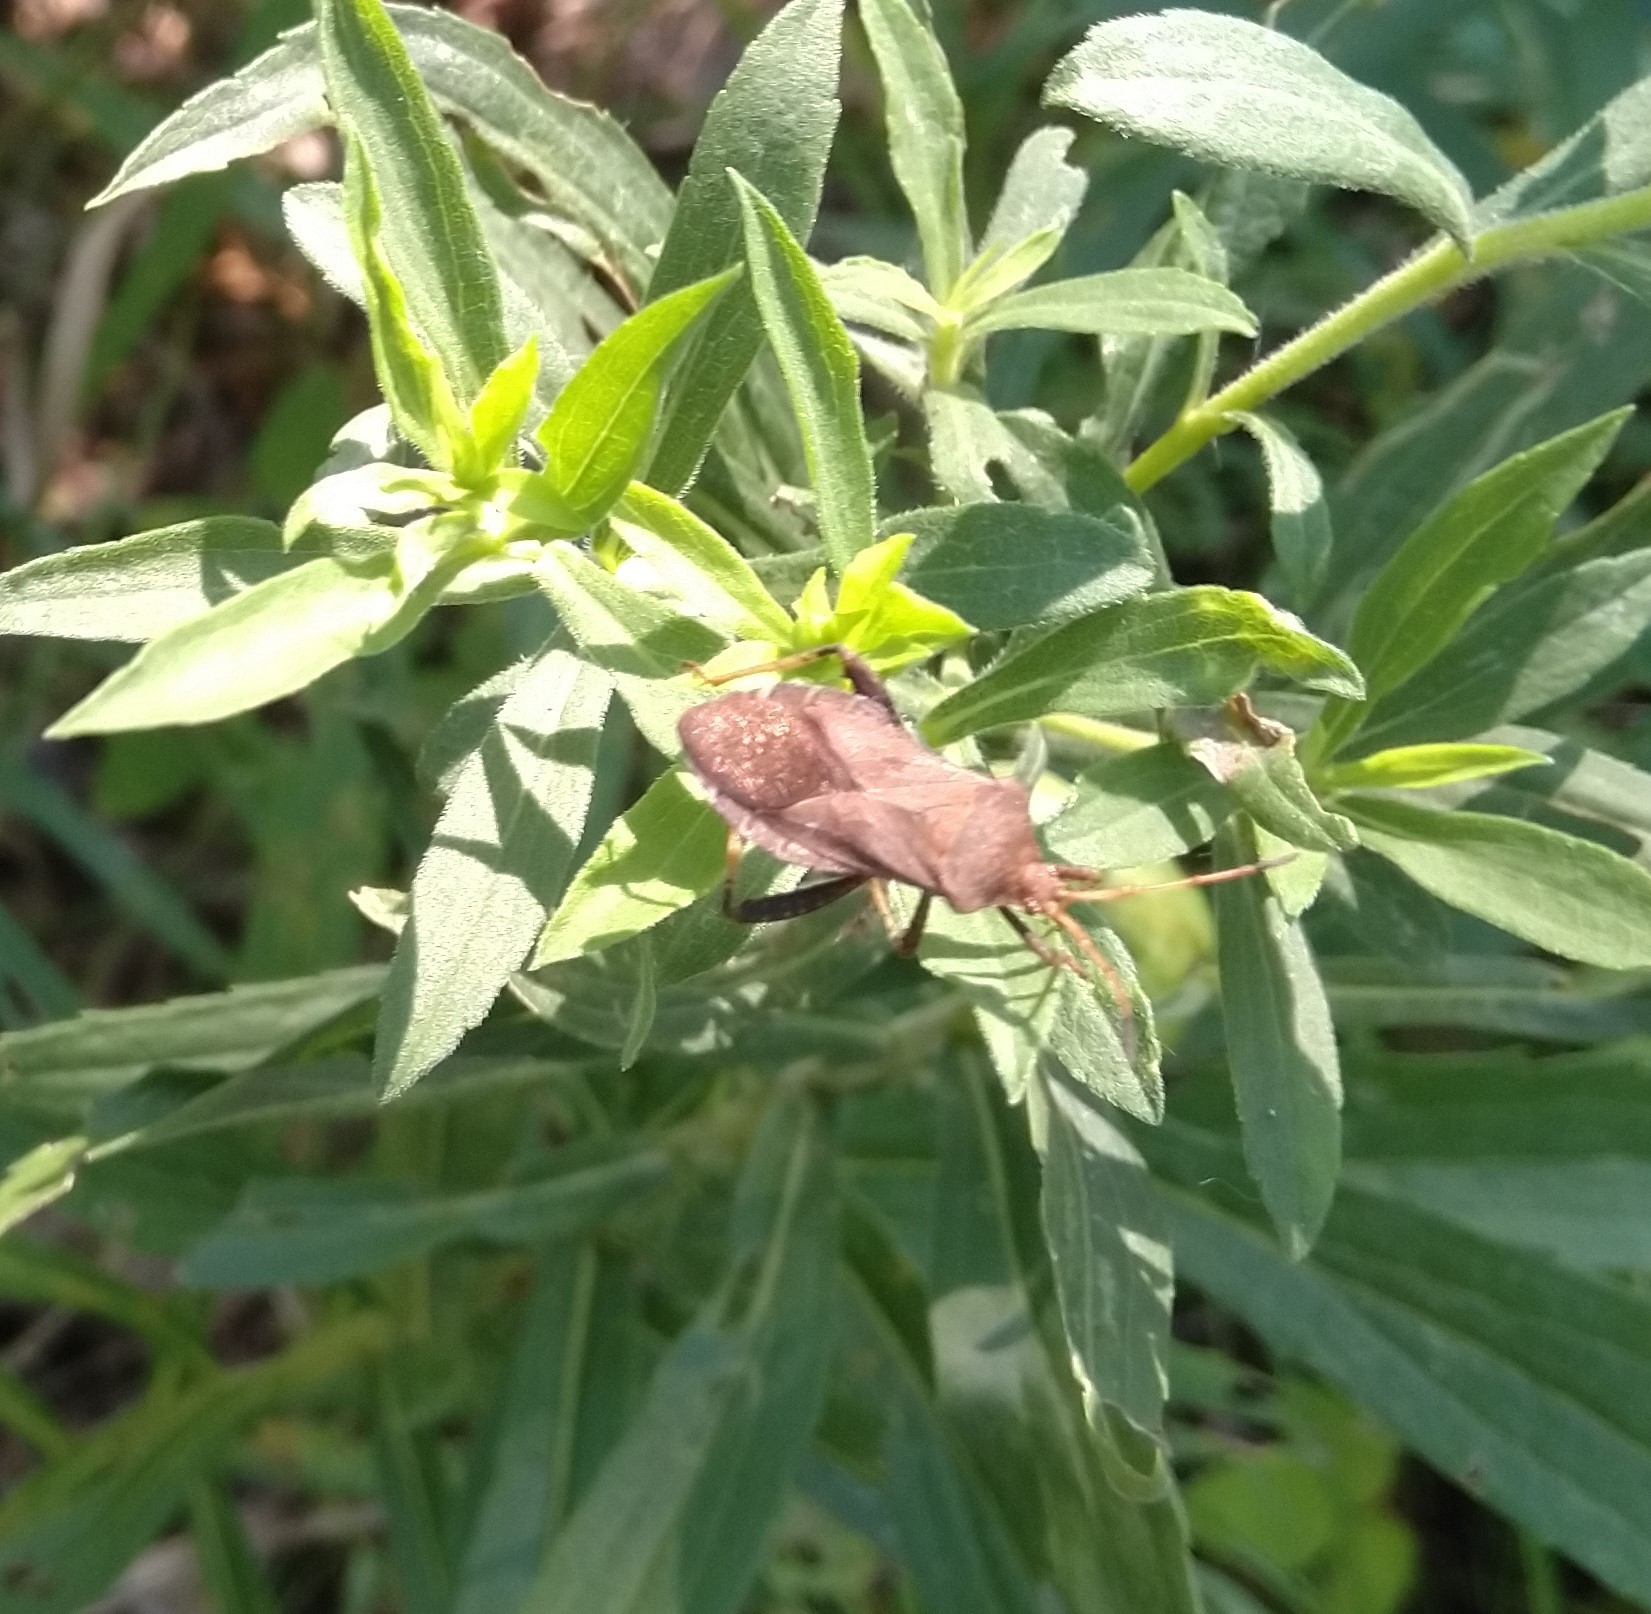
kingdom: Animalia
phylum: Arthropoda
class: Insecta
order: Hemiptera
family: Coreidae
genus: Euthochtha
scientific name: Euthochtha galeator
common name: Helmeted squash bug
